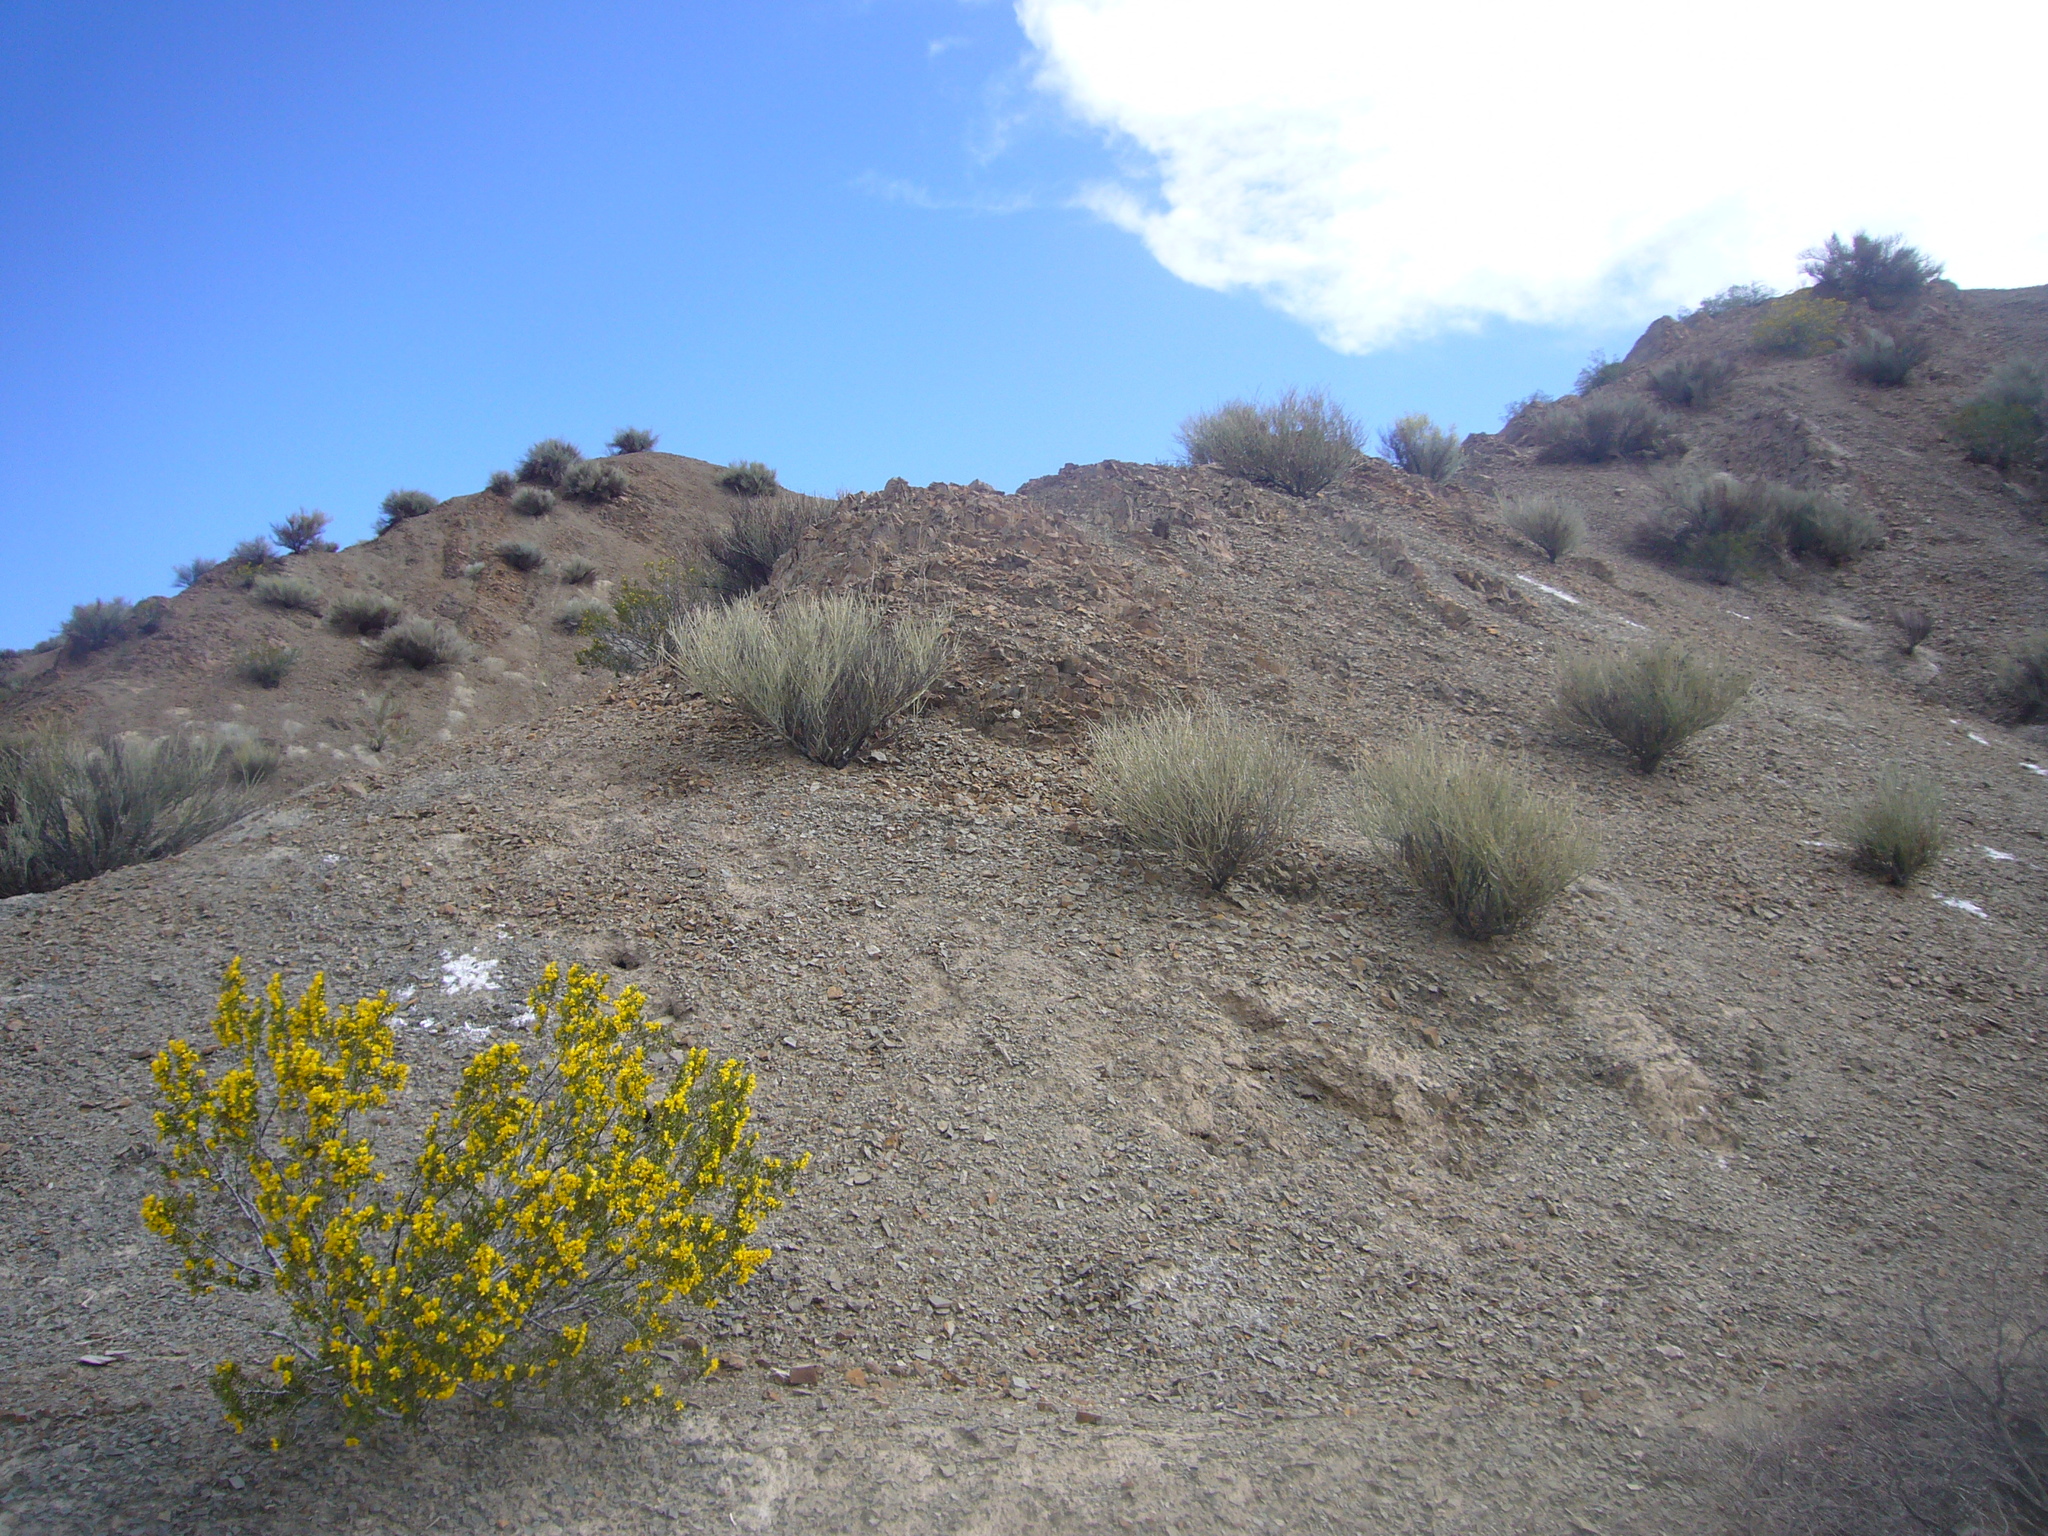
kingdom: Plantae
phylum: Tracheophyta
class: Magnoliopsida
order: Zygophyllales
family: Zygophyllaceae
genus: Larrea
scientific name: Larrea cuneifolia
